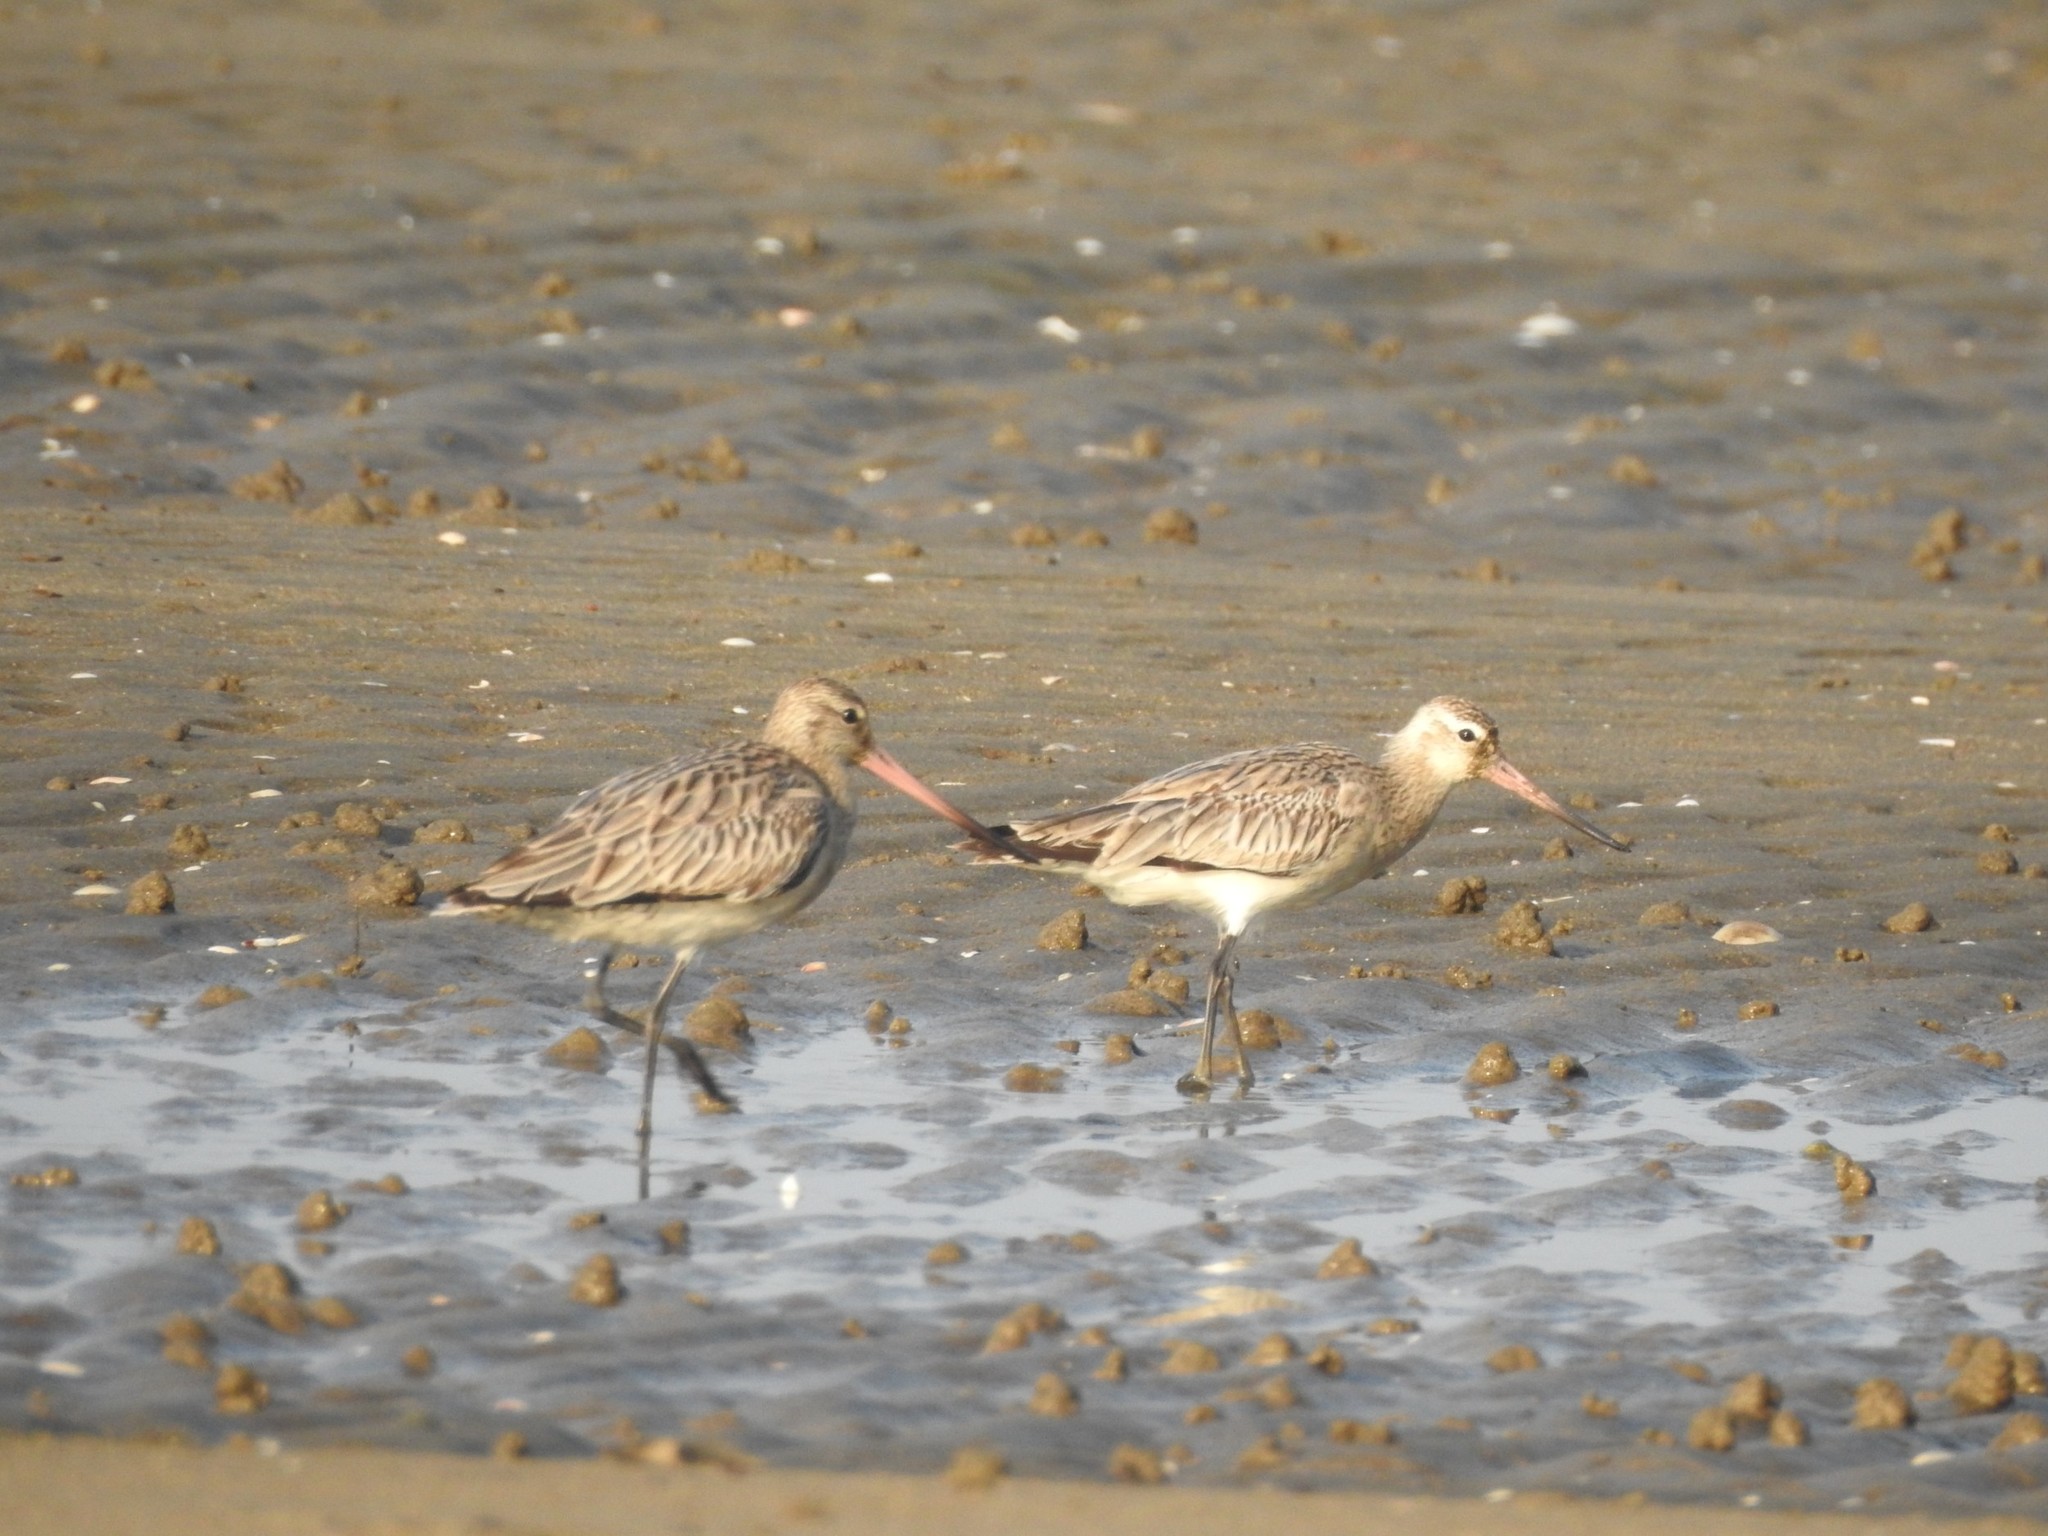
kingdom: Animalia
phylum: Chordata
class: Aves
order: Charadriiformes
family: Scolopacidae
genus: Limosa
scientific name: Limosa lapponica
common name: Bar-tailed godwit
